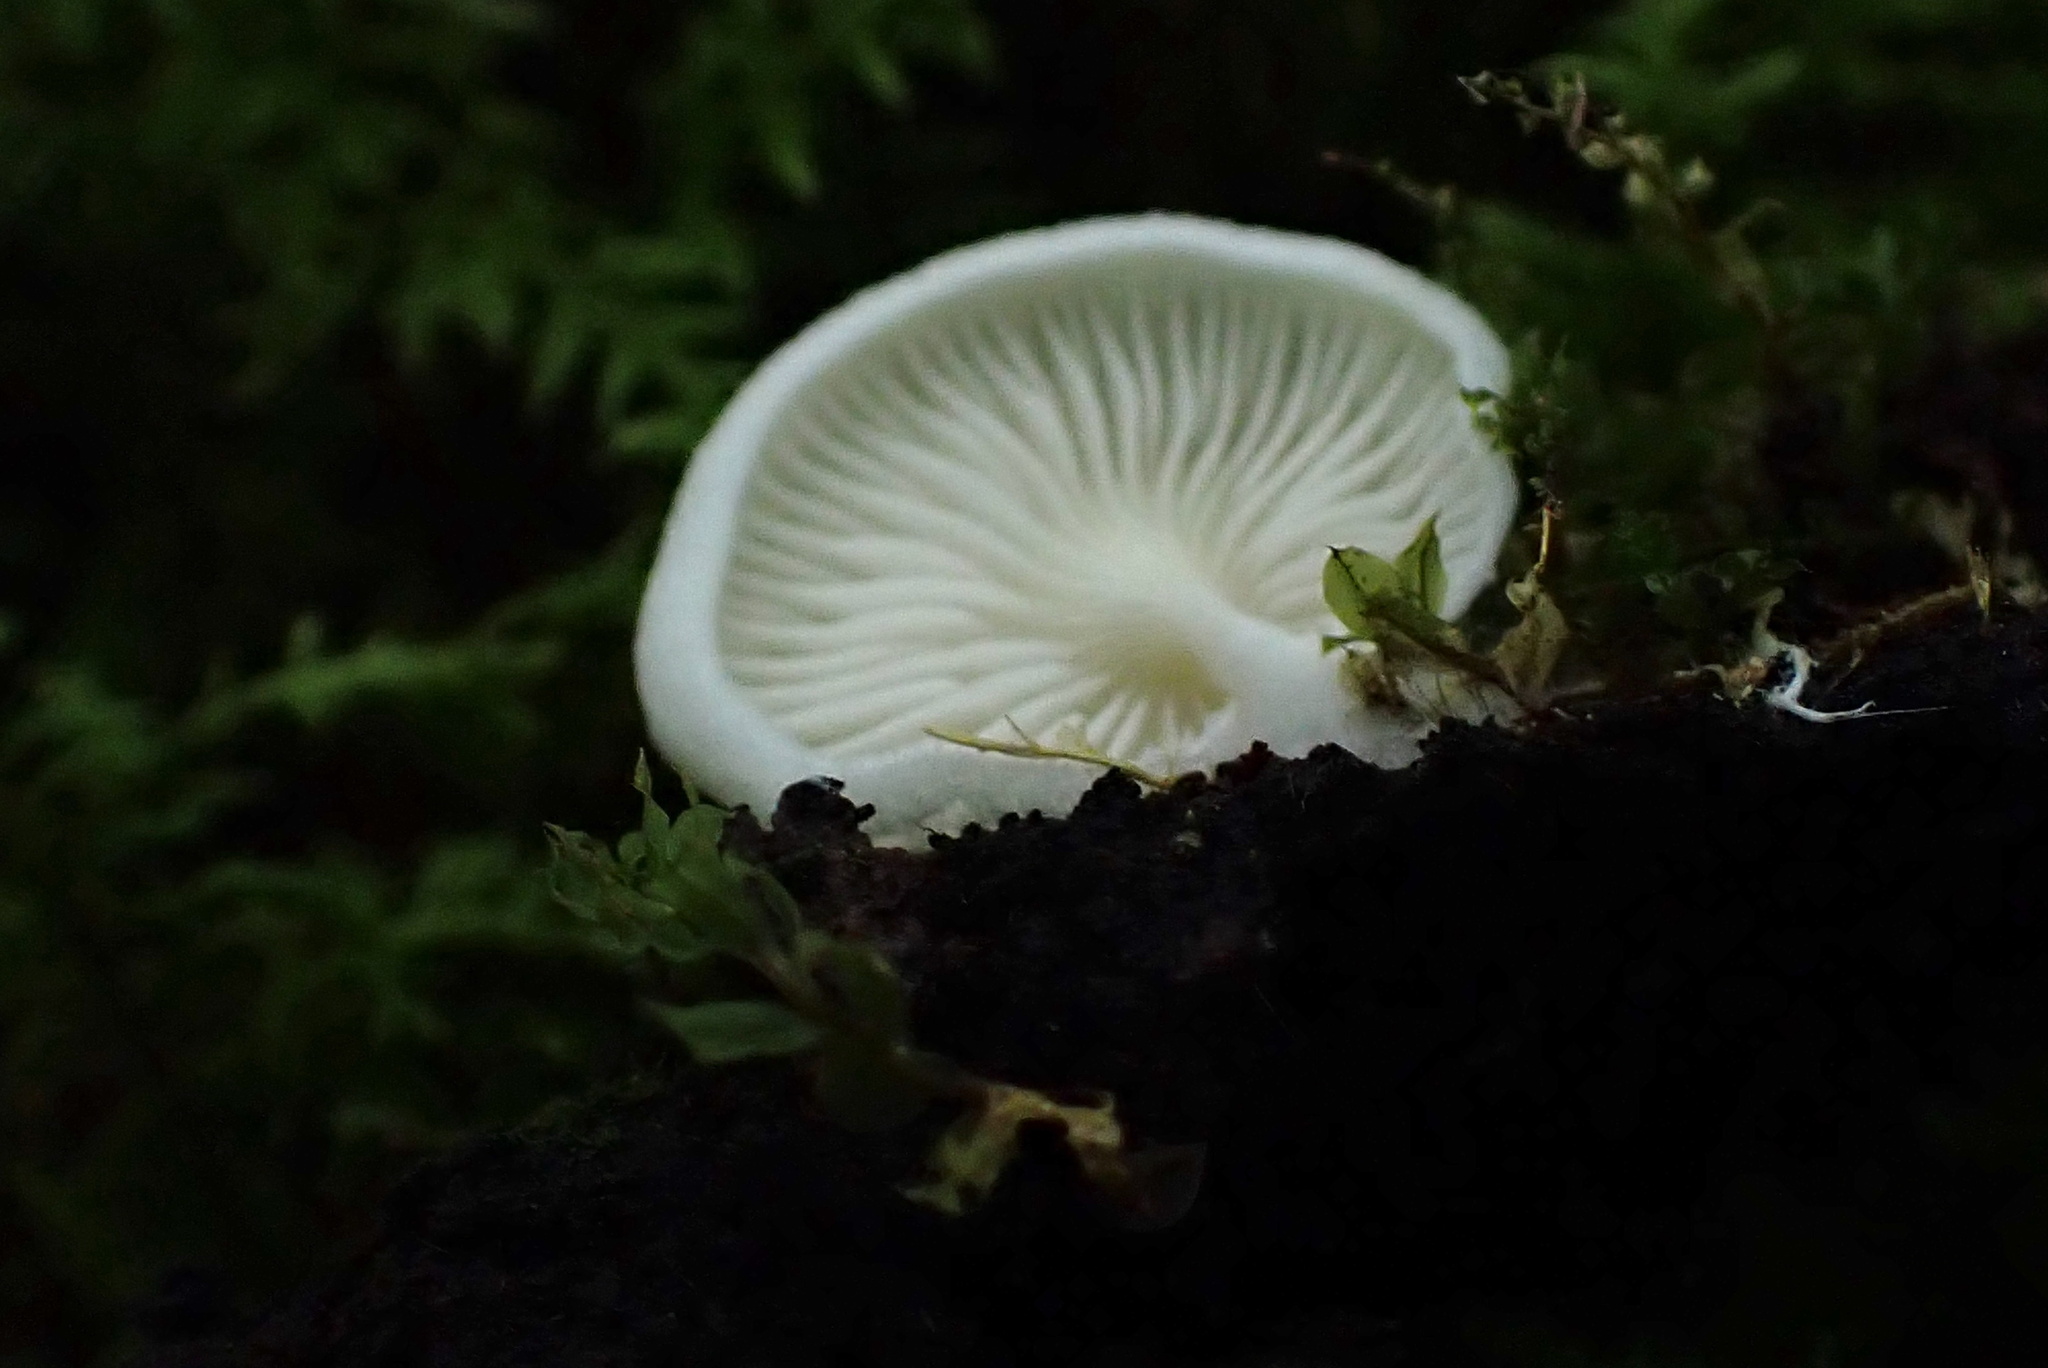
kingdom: Fungi
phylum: Basidiomycota
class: Agaricomycetes
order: Agaricales
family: Cyphellaceae
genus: Cheimonophyllum
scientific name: Cheimonophyllum
